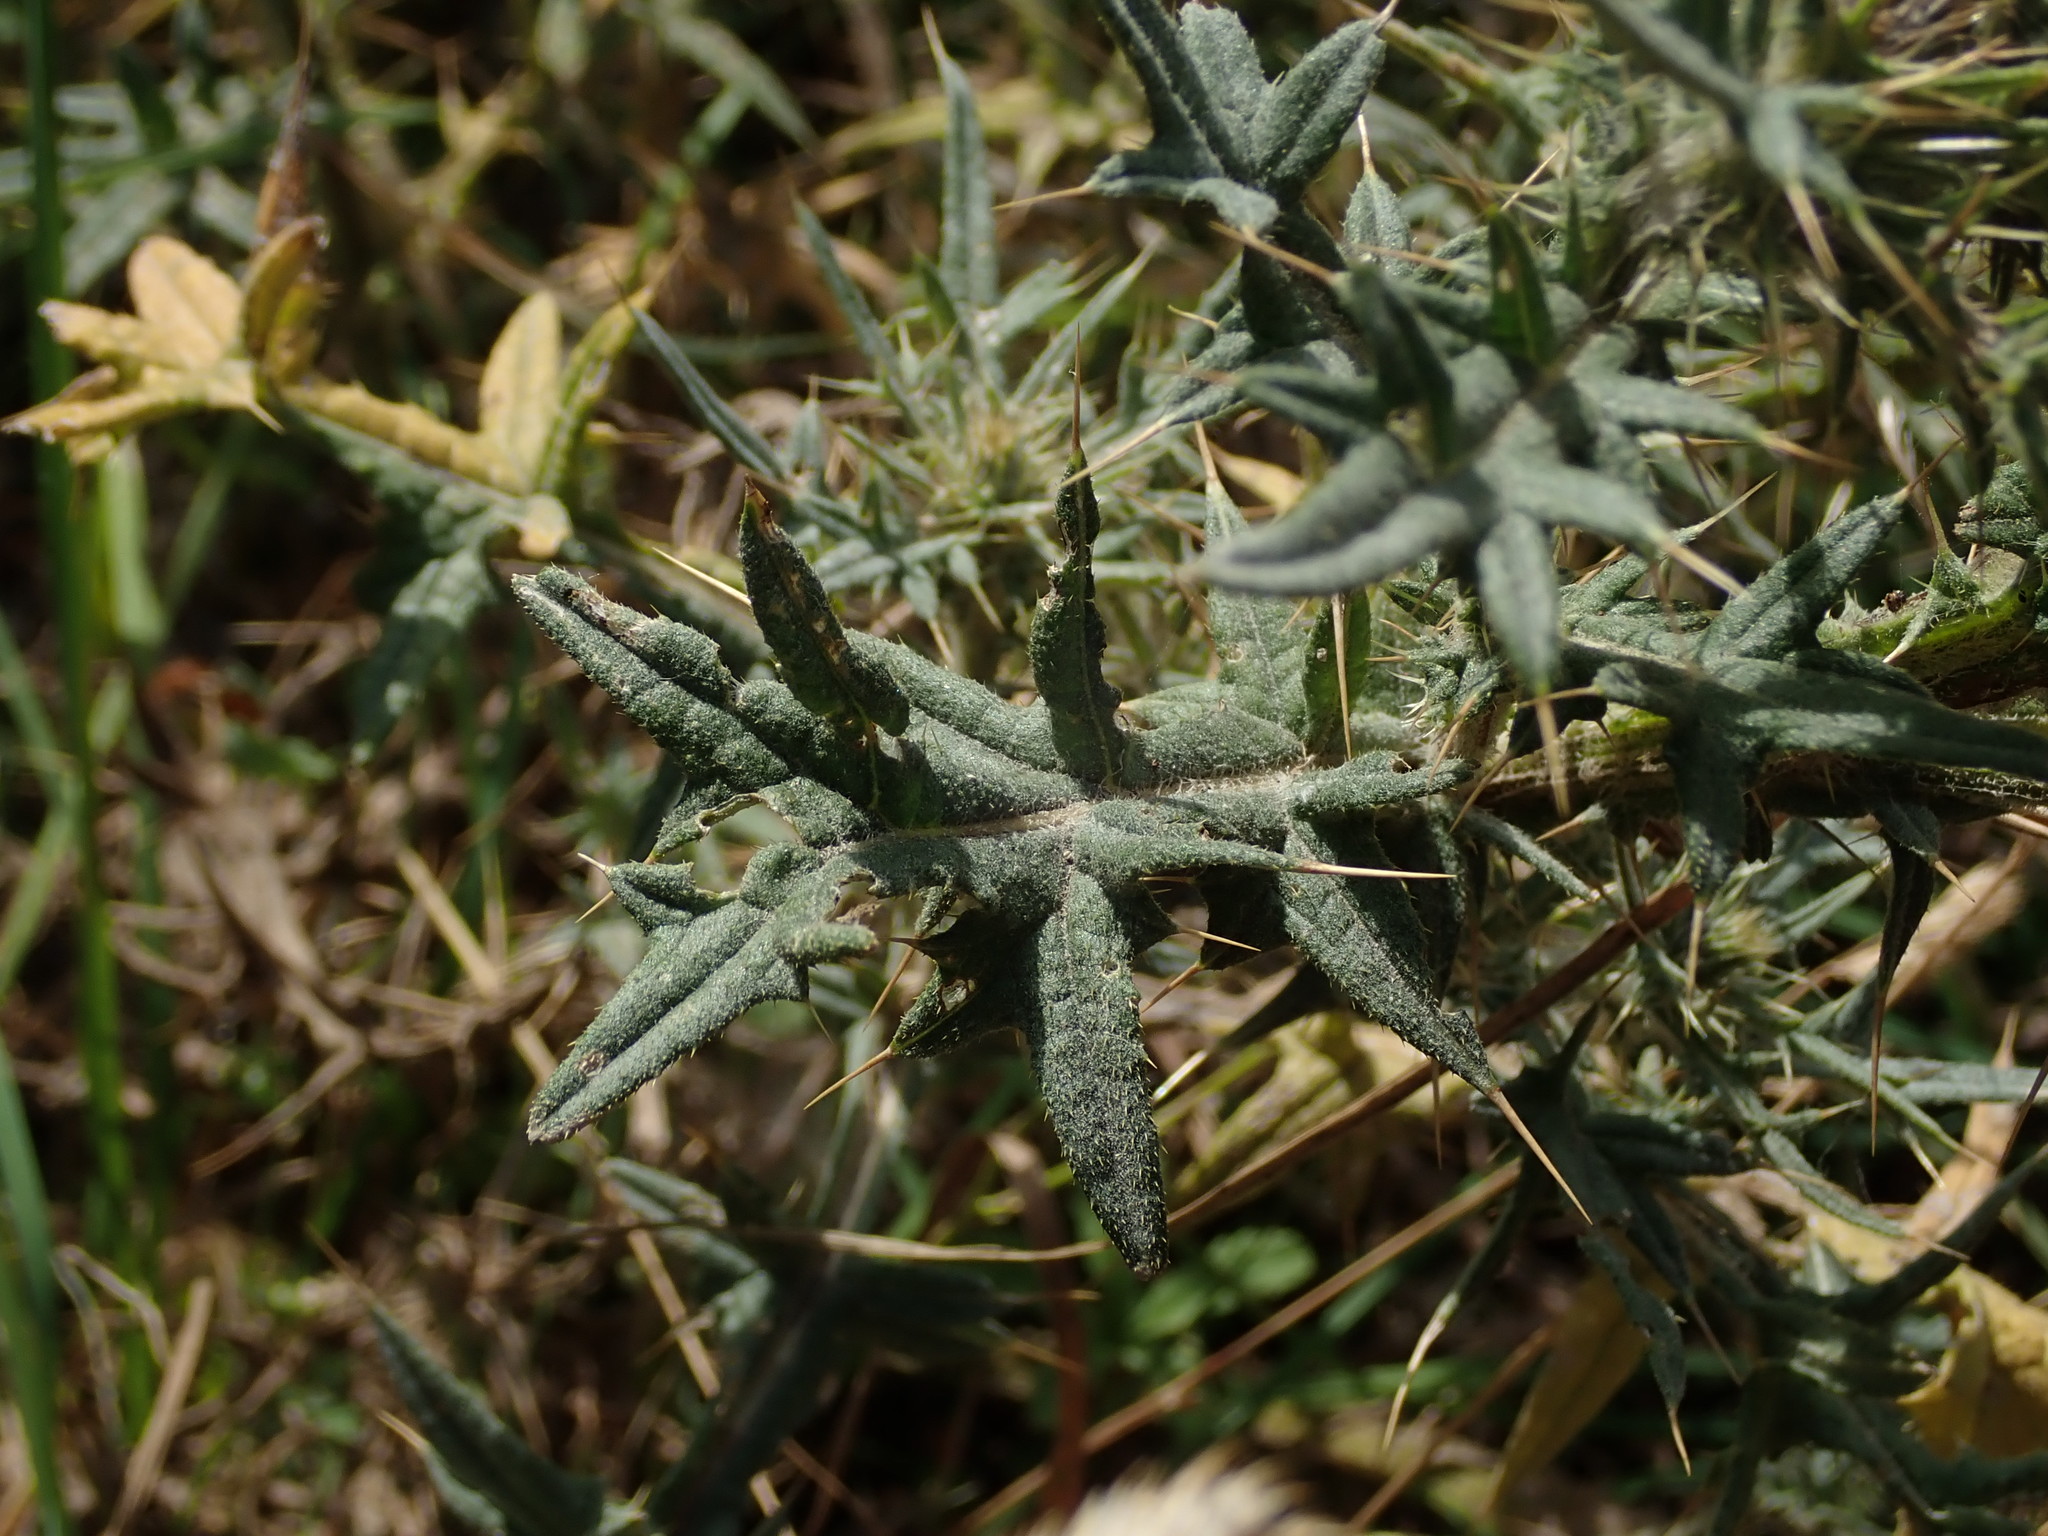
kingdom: Plantae
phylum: Tracheophyta
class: Magnoliopsida
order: Asterales
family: Asteraceae
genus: Cirsium
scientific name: Cirsium vulgare
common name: Bull thistle
